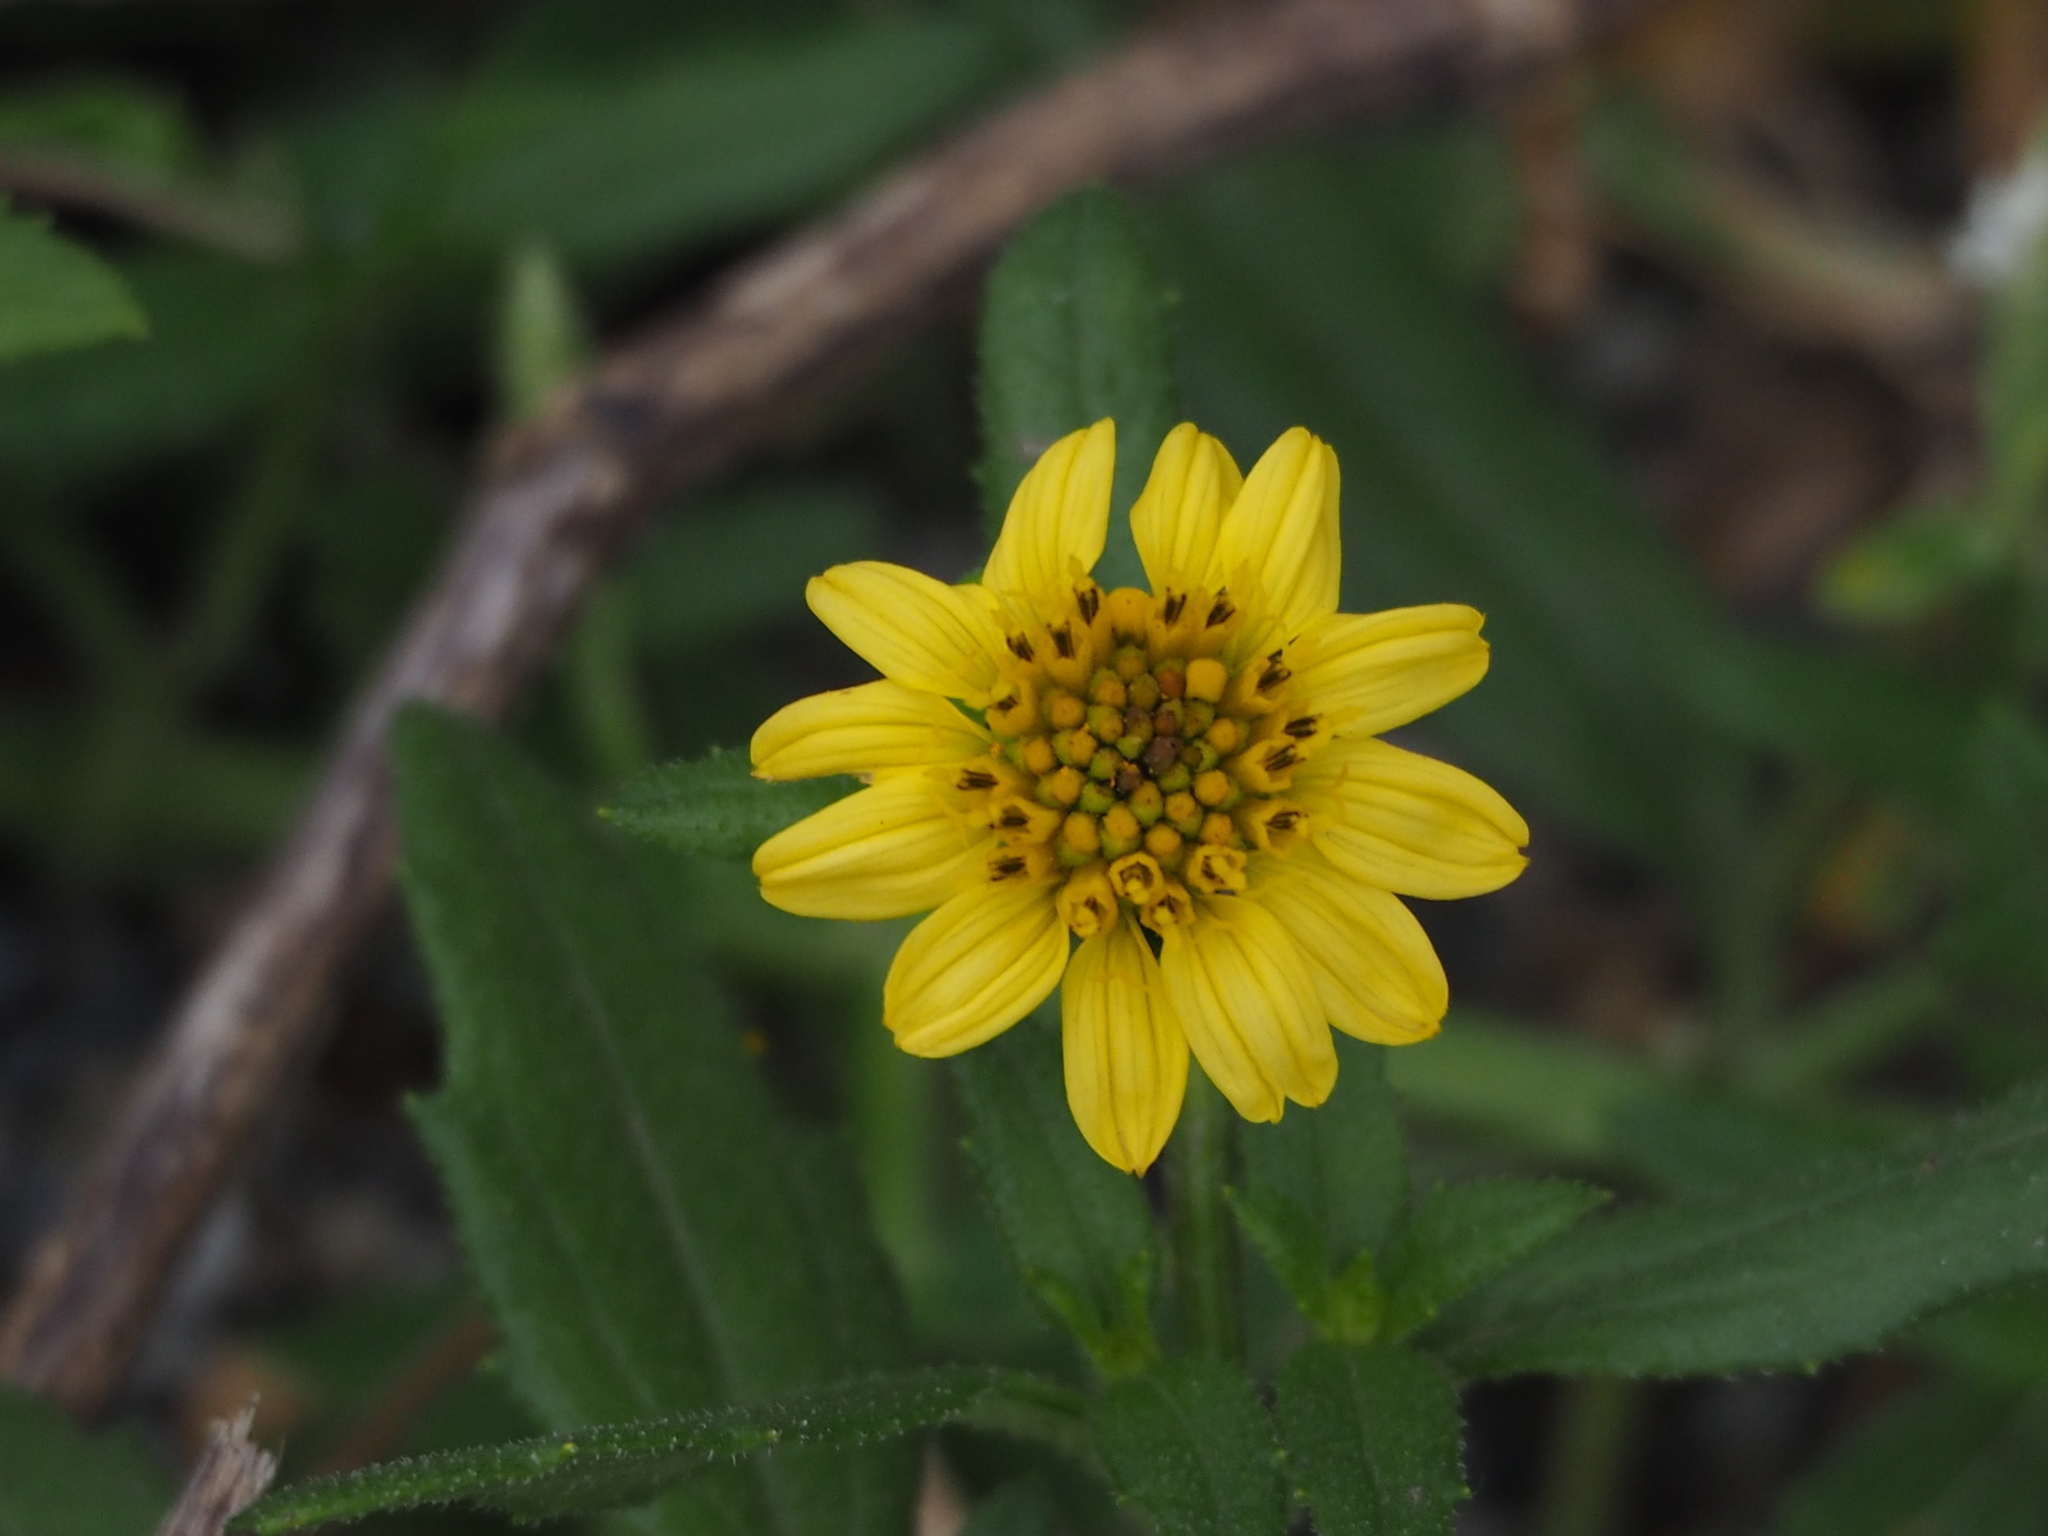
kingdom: Plantae
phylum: Tracheophyta
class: Magnoliopsida
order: Asterales
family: Asteraceae
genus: Melanthera
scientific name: Melanthera prostrata
